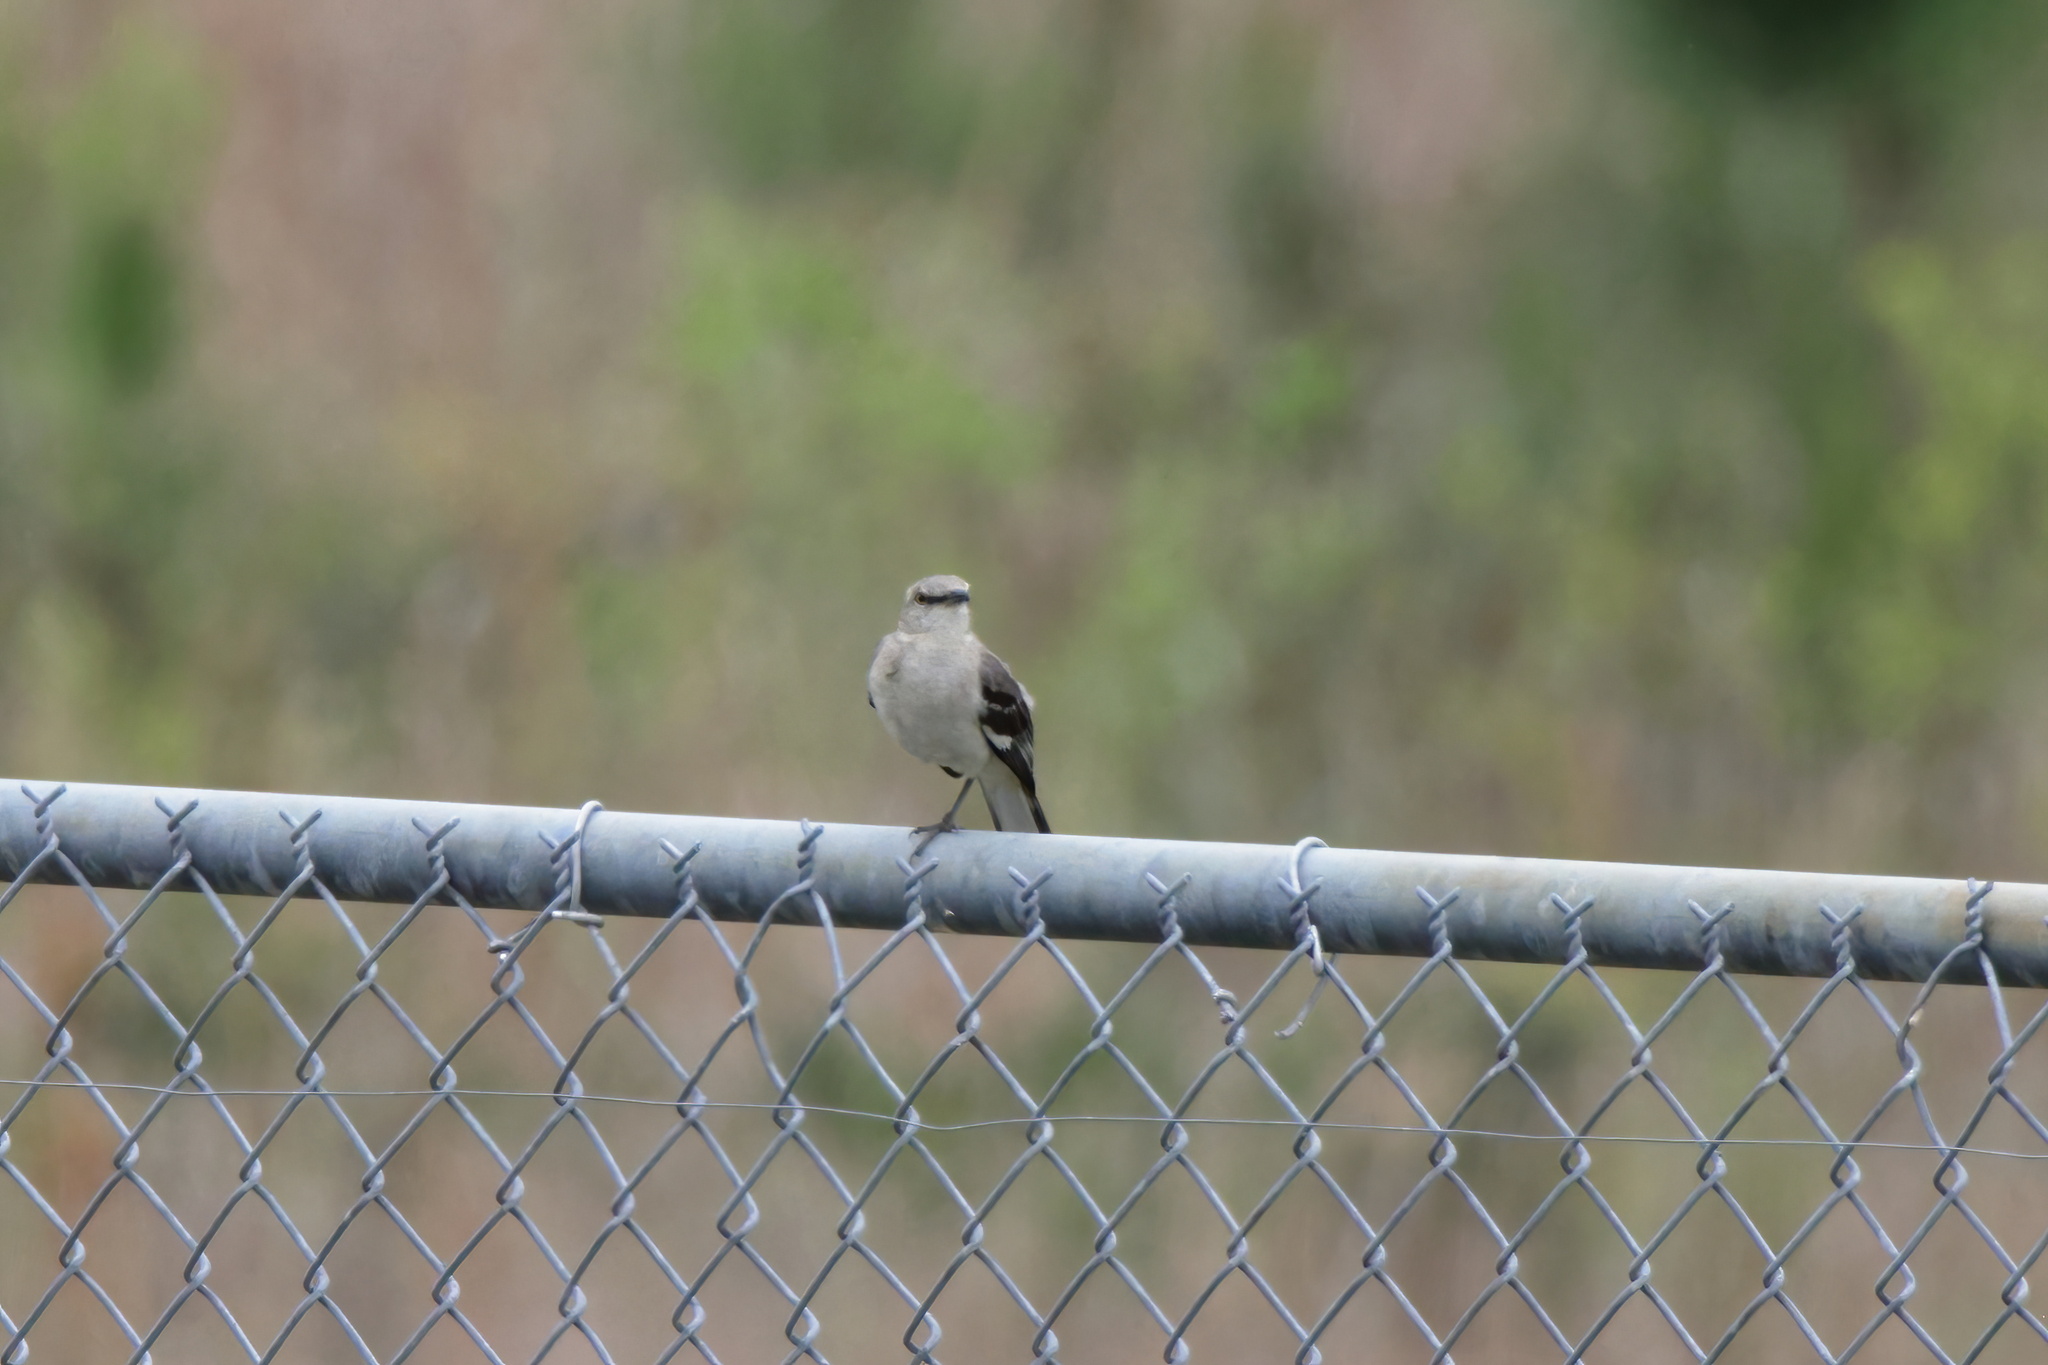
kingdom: Animalia
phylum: Chordata
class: Aves
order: Passeriformes
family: Mimidae
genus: Mimus
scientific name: Mimus polyglottos
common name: Northern mockingbird
